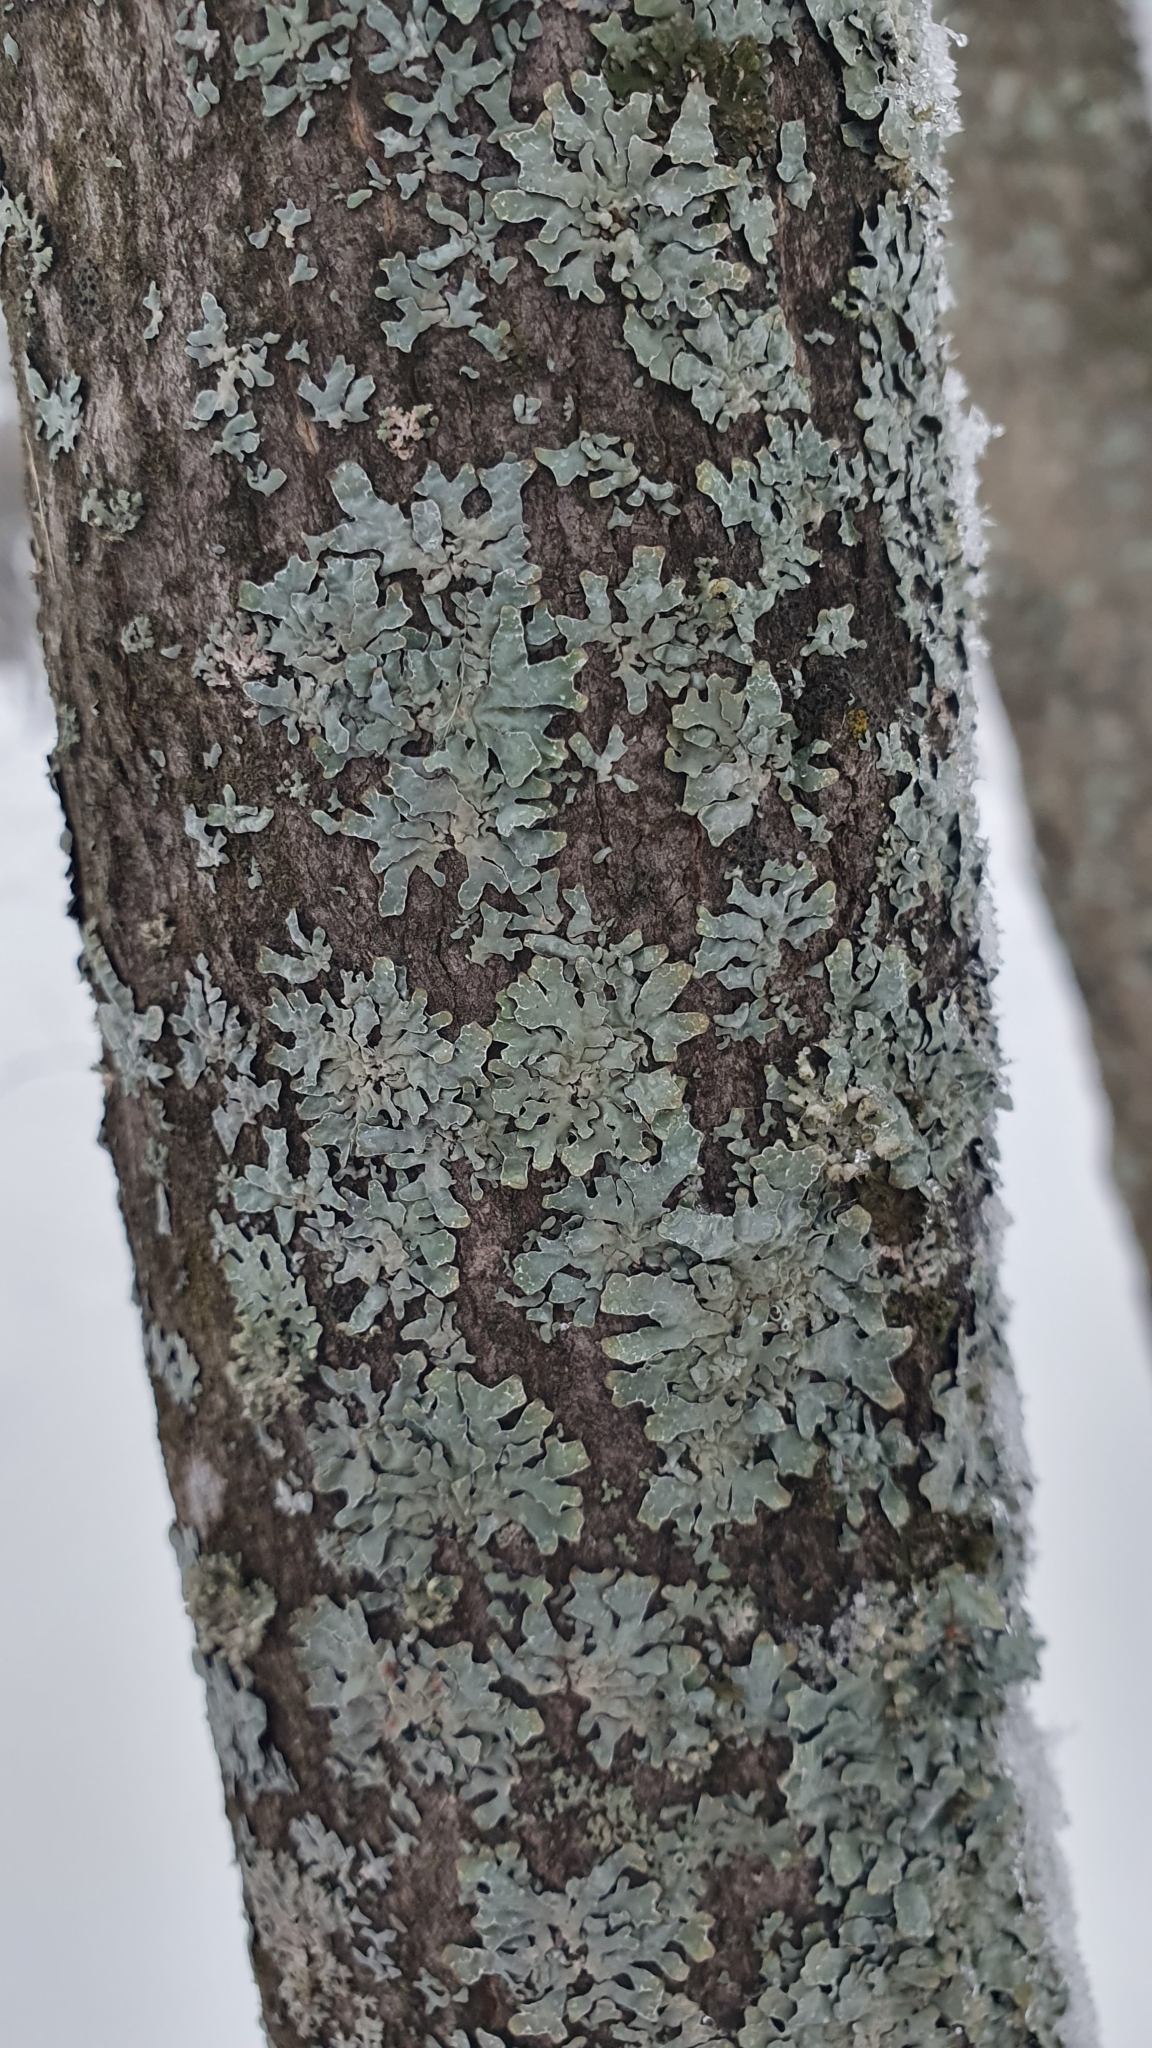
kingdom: Fungi
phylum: Ascomycota
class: Lecanoromycetes
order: Lecanorales
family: Parmeliaceae
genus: Parmelia
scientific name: Parmelia sulcata
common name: Netted shield lichen
